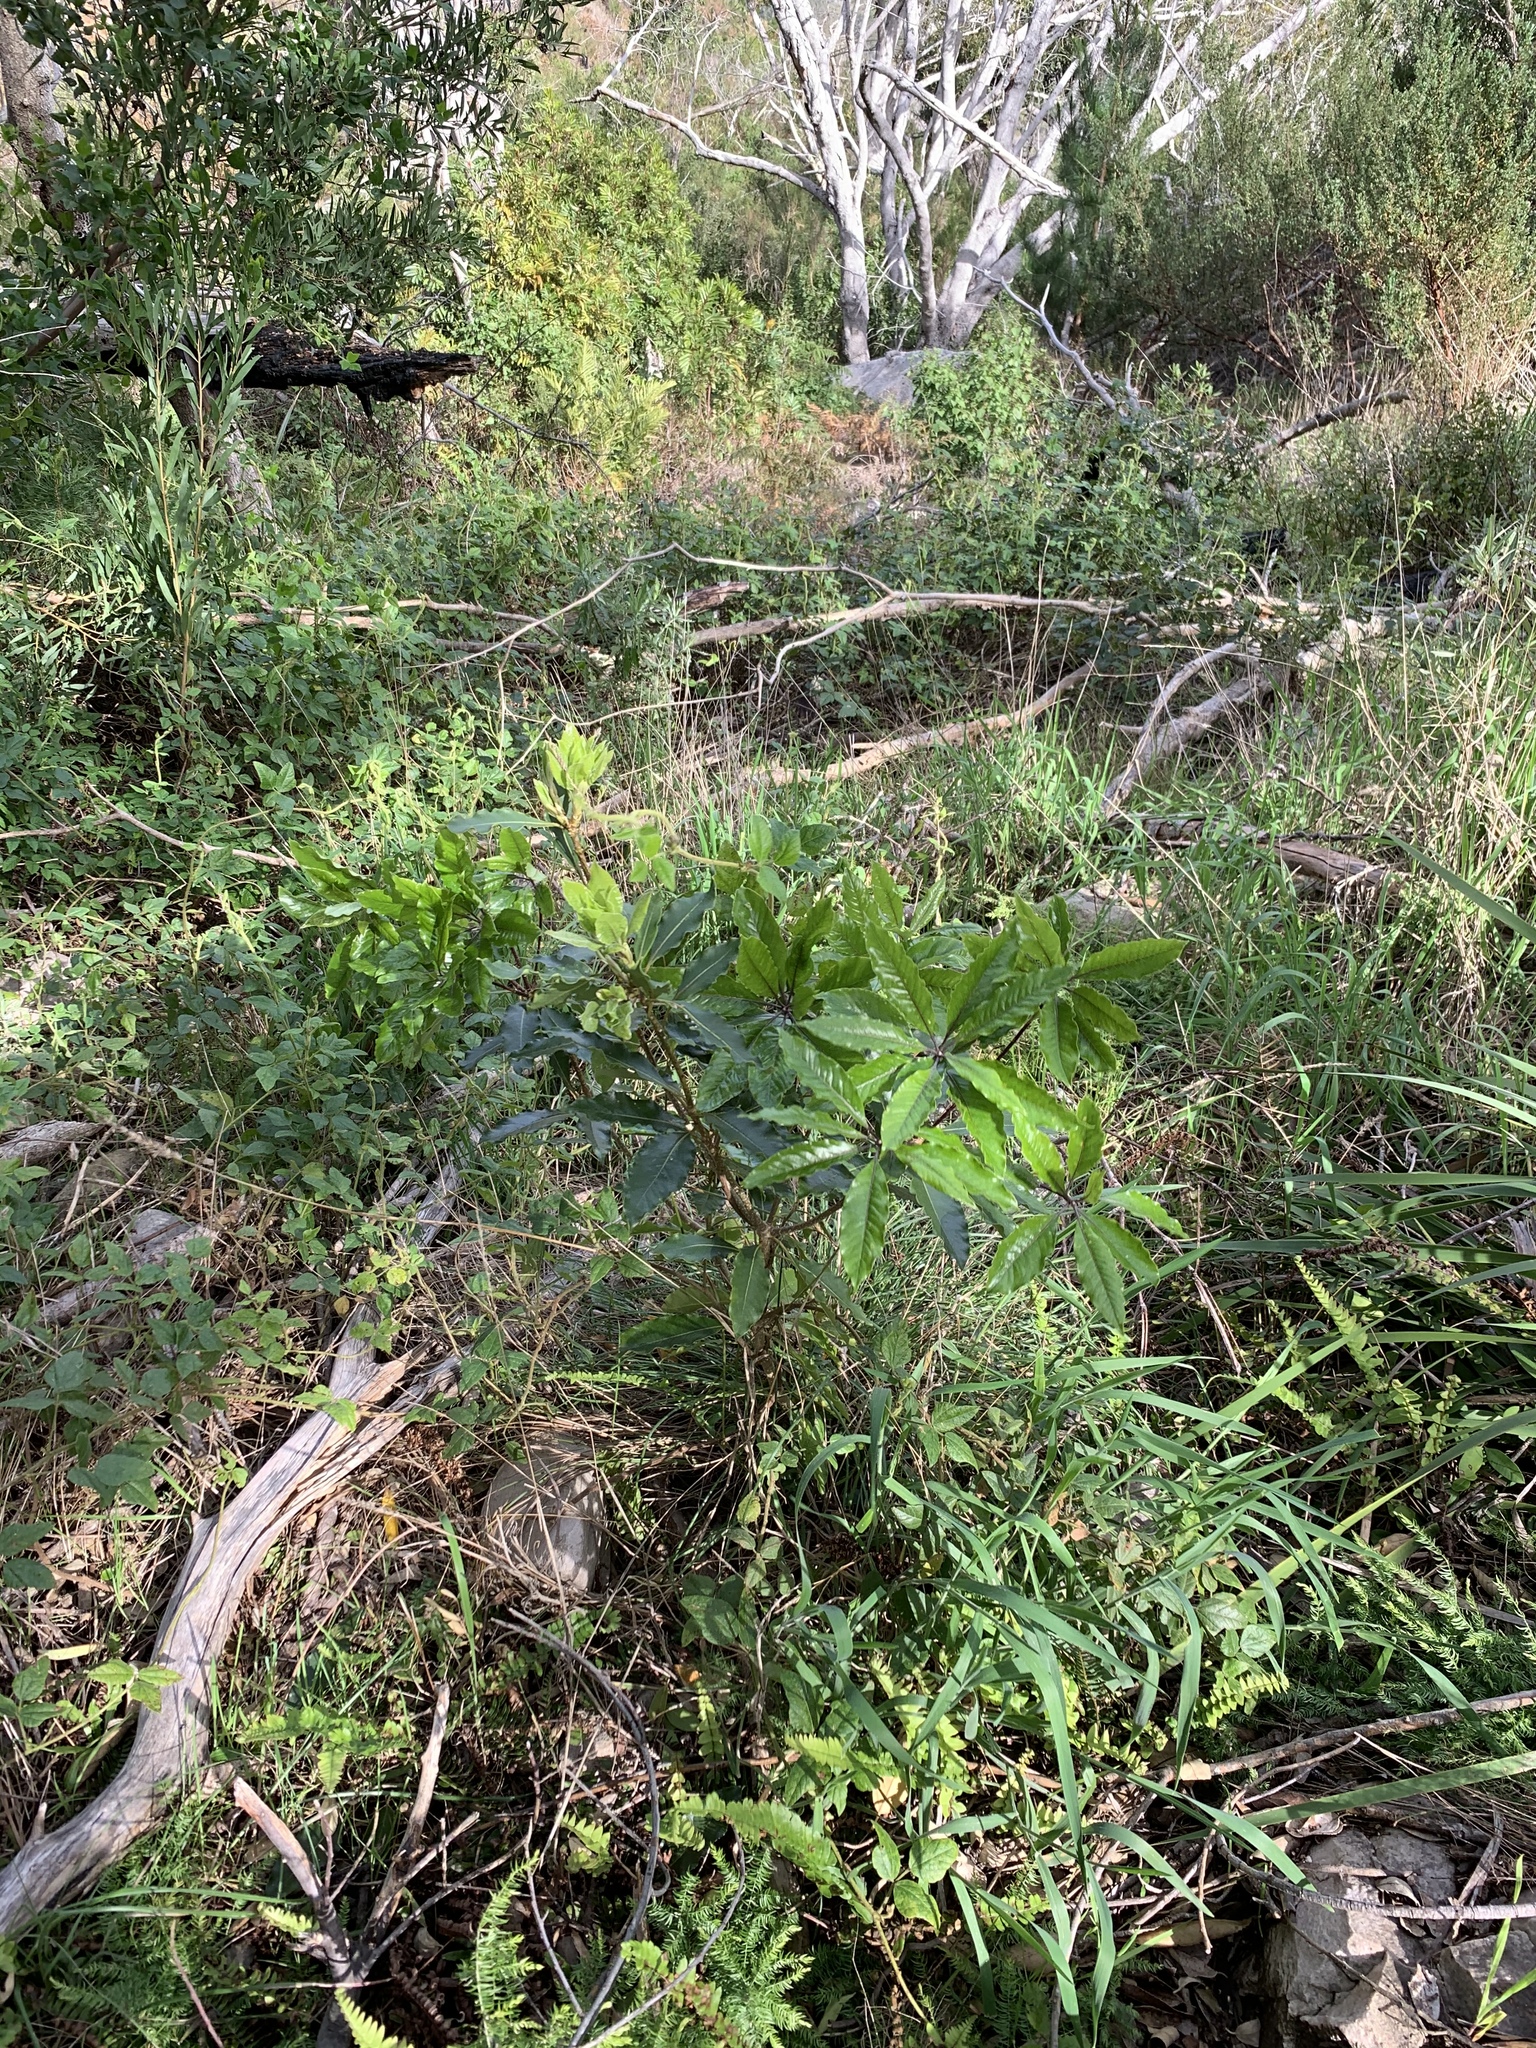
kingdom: Plantae
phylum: Tracheophyta
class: Magnoliopsida
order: Apiales
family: Pittosporaceae
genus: Pittosporum
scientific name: Pittosporum undulatum
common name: Australian cheesewood
